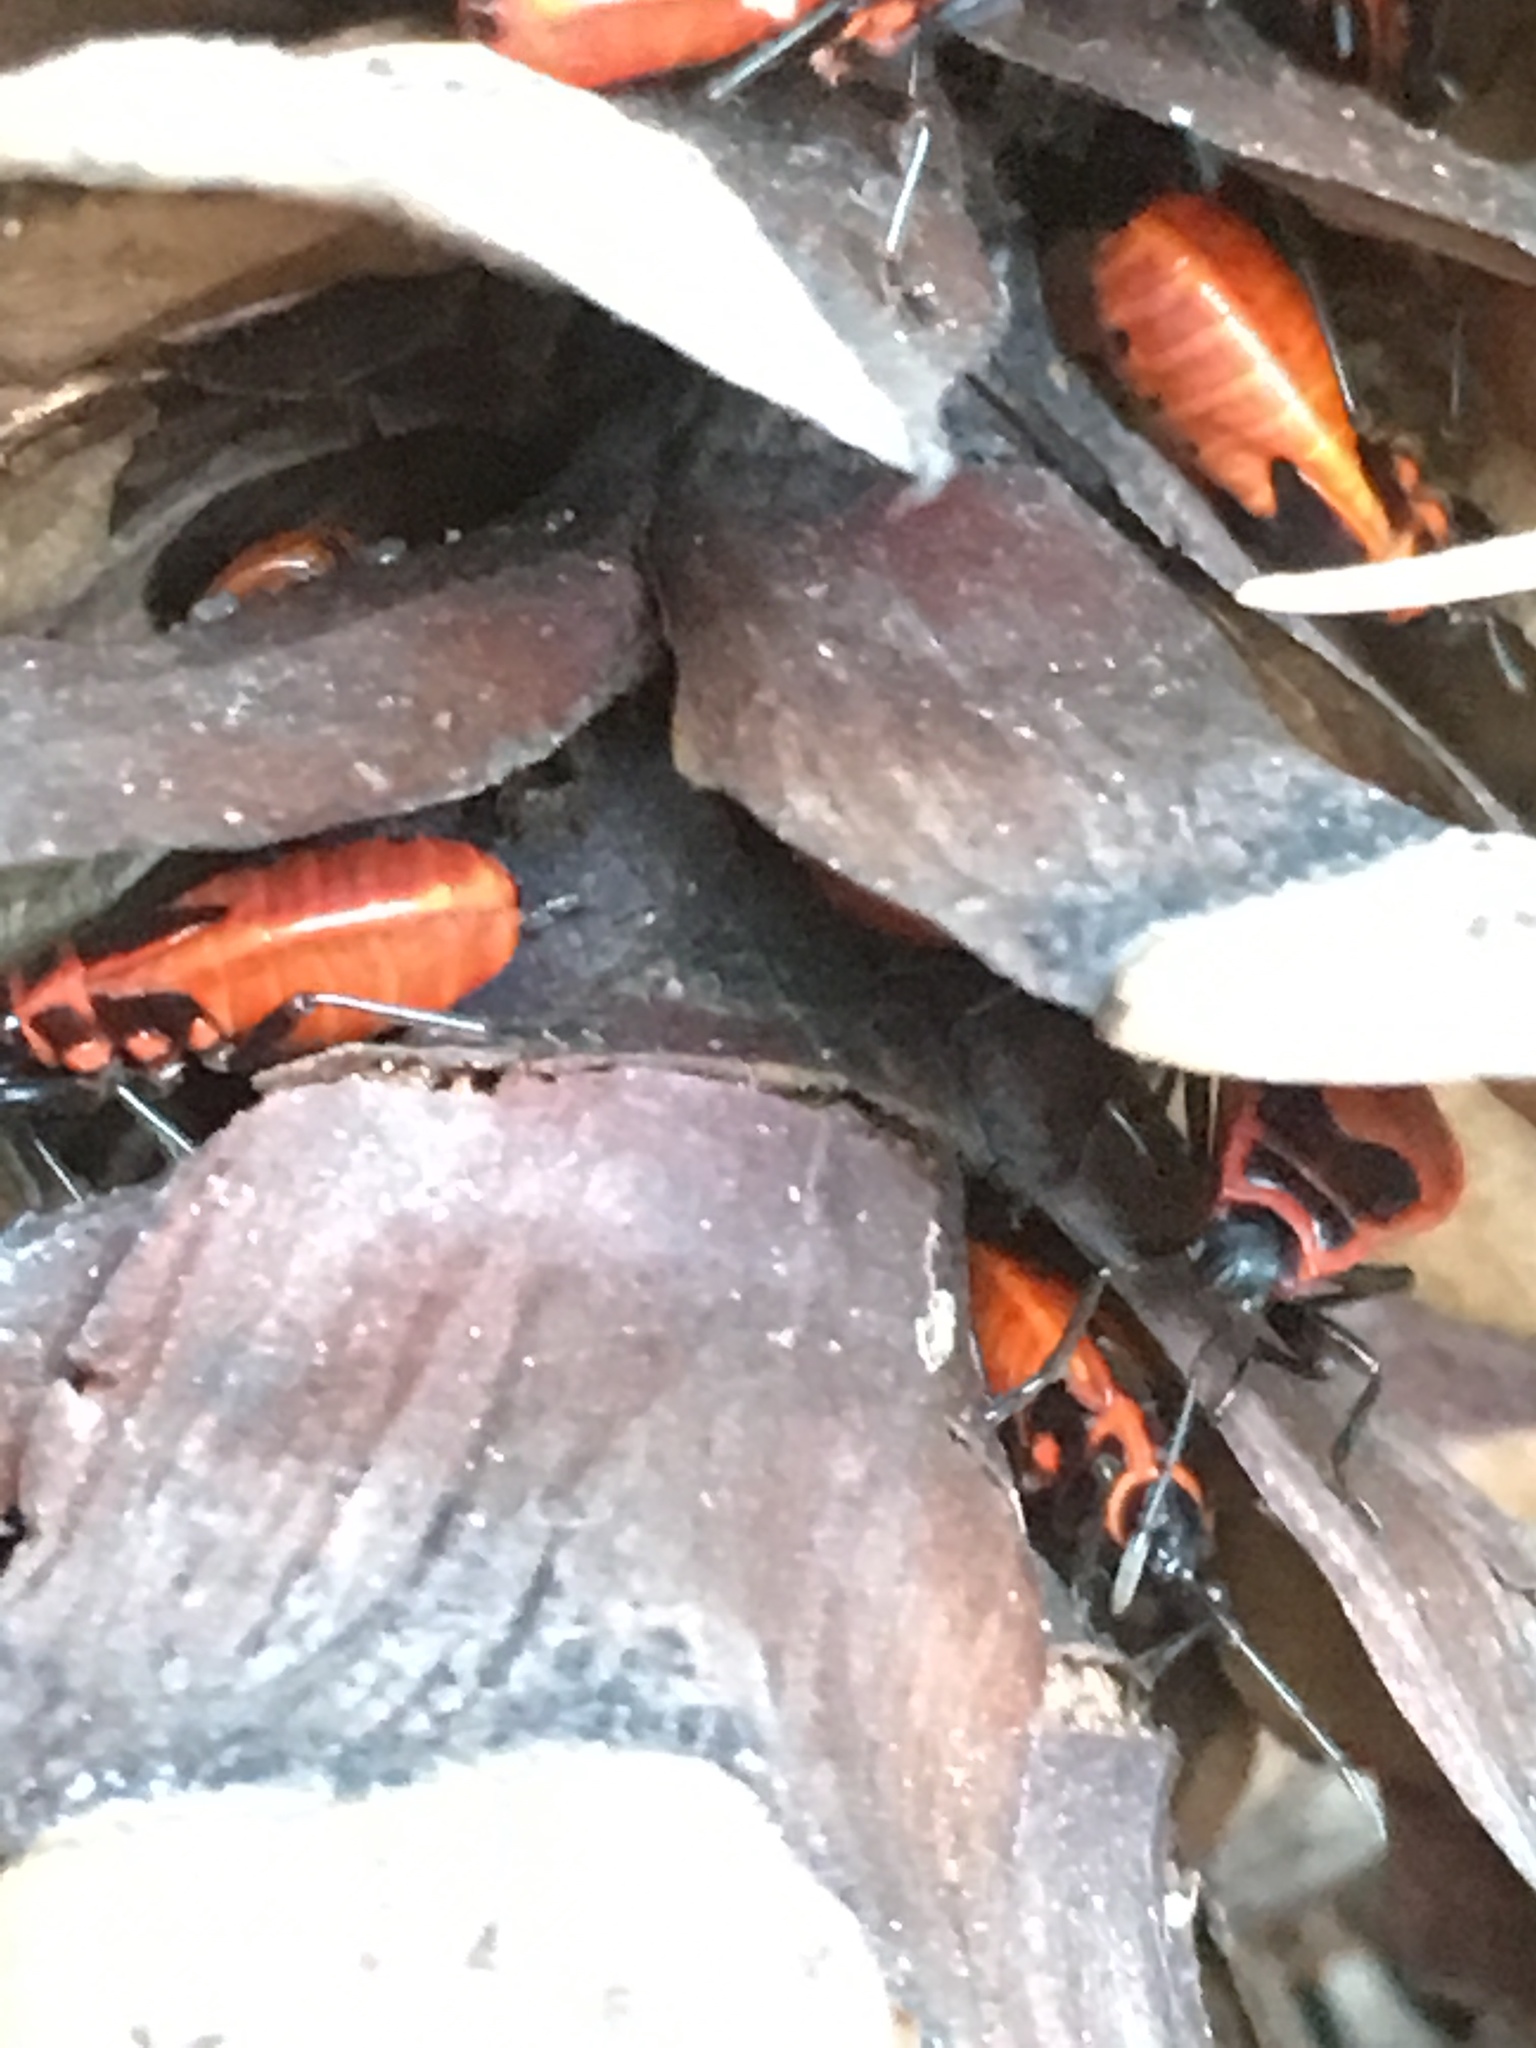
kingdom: Animalia
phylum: Arthropoda
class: Insecta
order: Hemiptera
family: Pyrrhocoridae
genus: Pyrrhocoris
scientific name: Pyrrhocoris apterus
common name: Firebug
